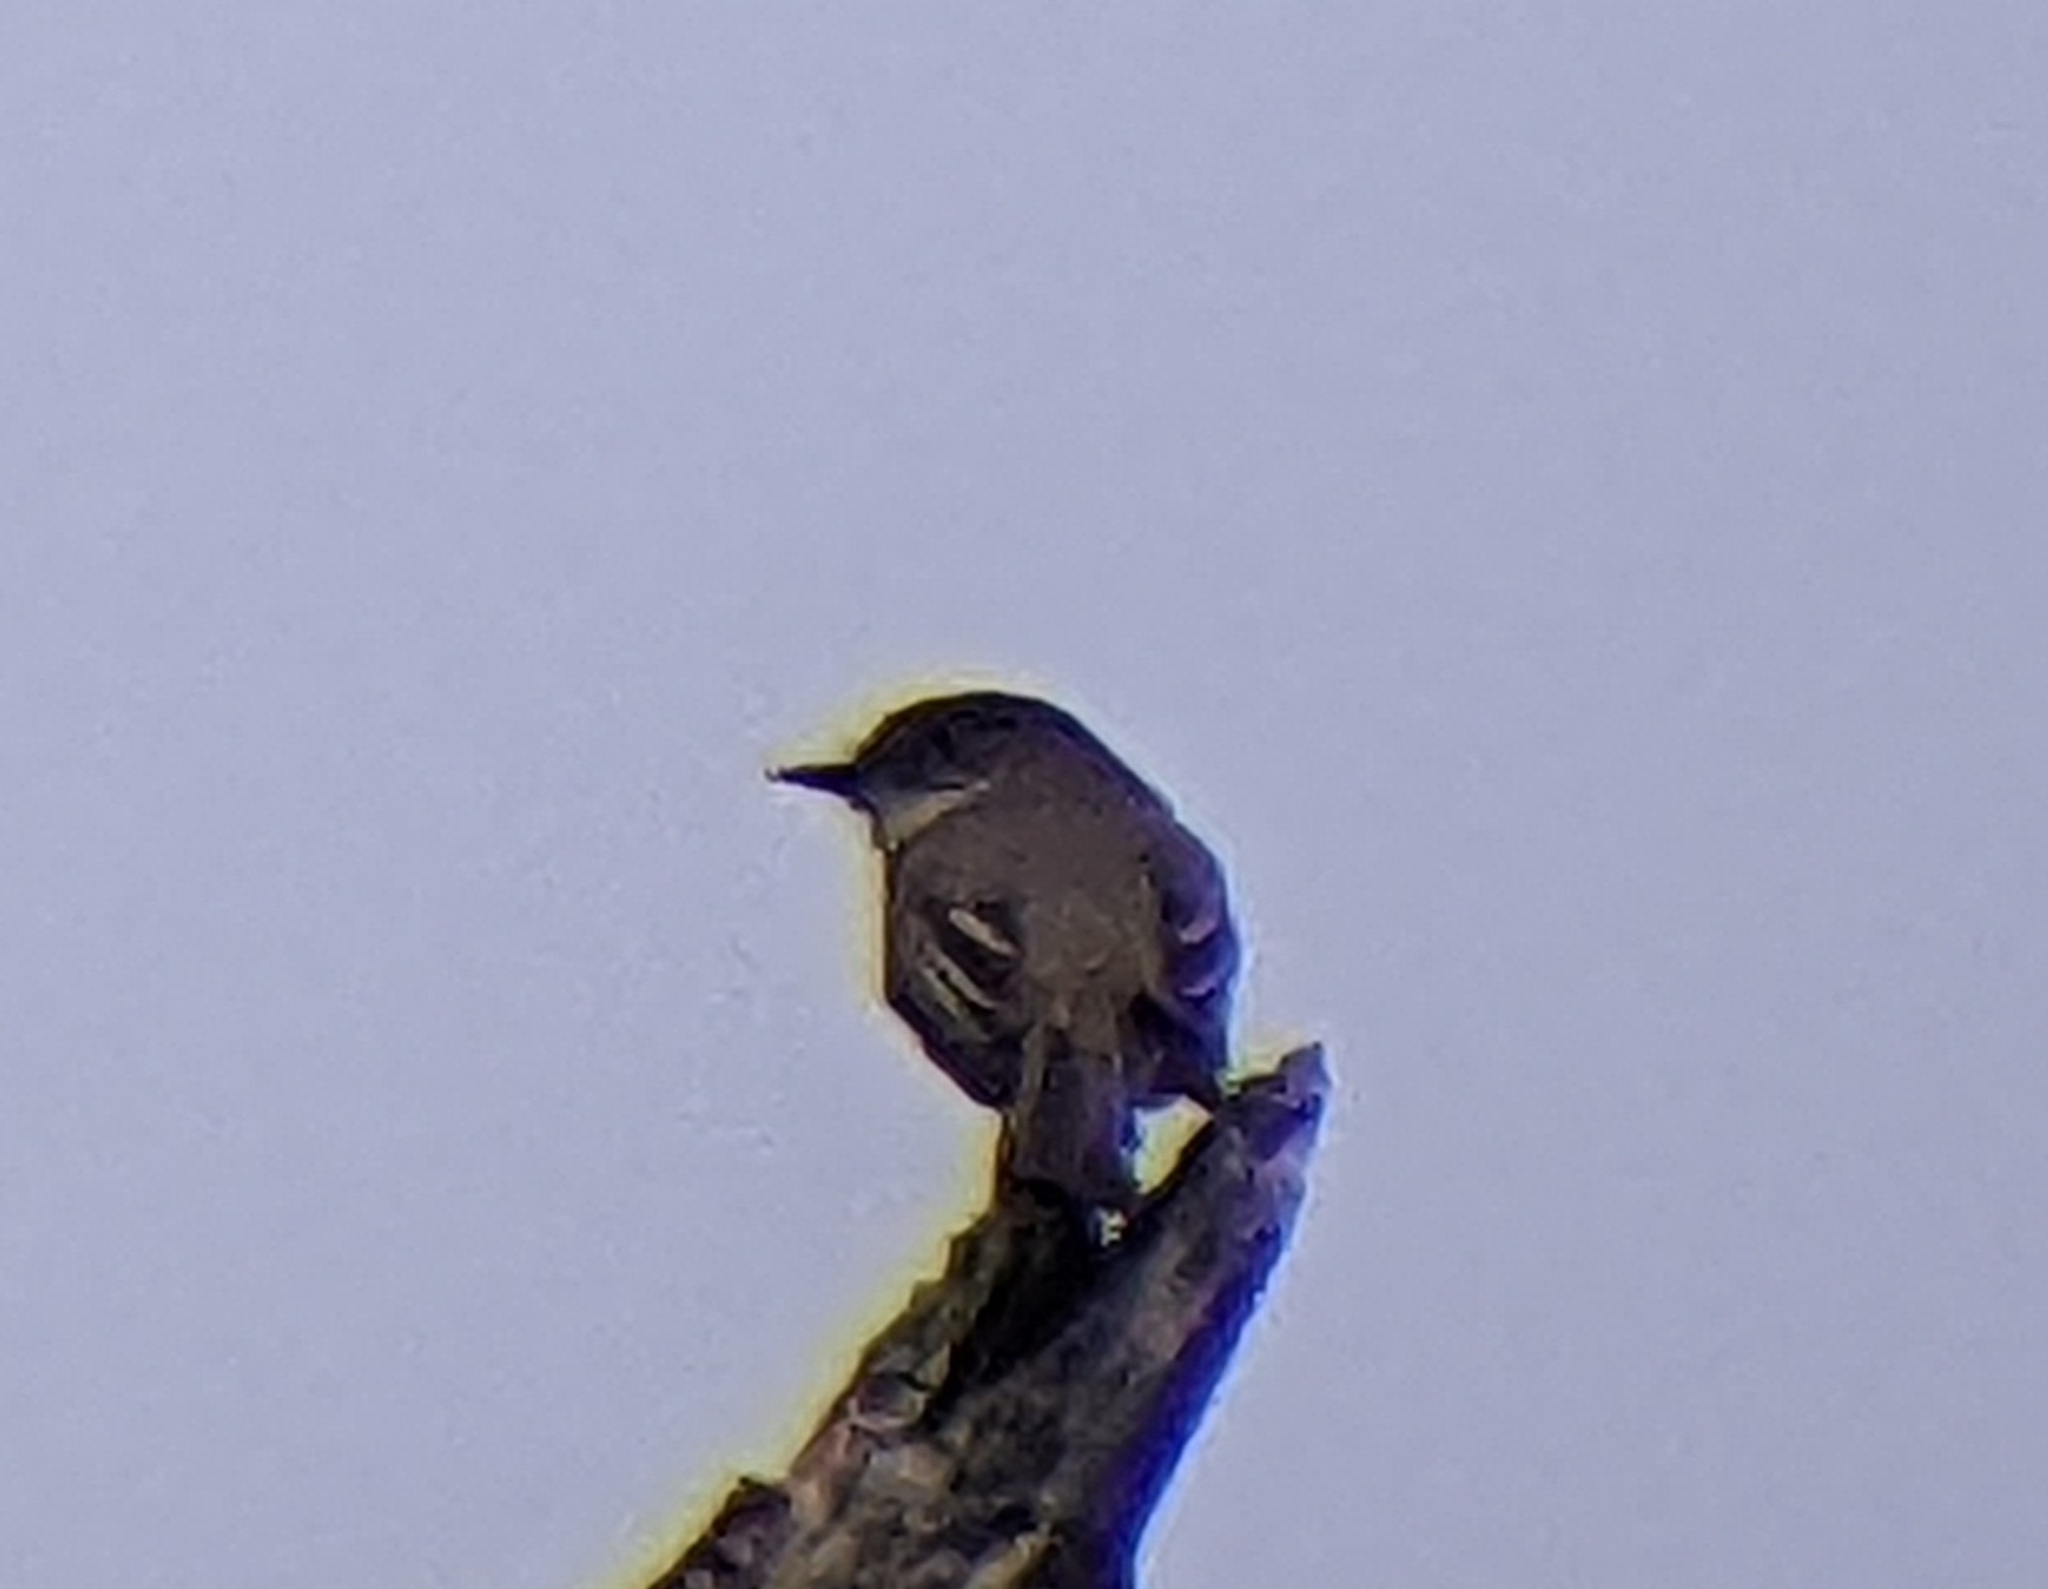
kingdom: Animalia
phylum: Chordata
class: Aves
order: Passeriformes
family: Tyrannidae
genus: Sayornis
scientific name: Sayornis phoebe
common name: Eastern phoebe
